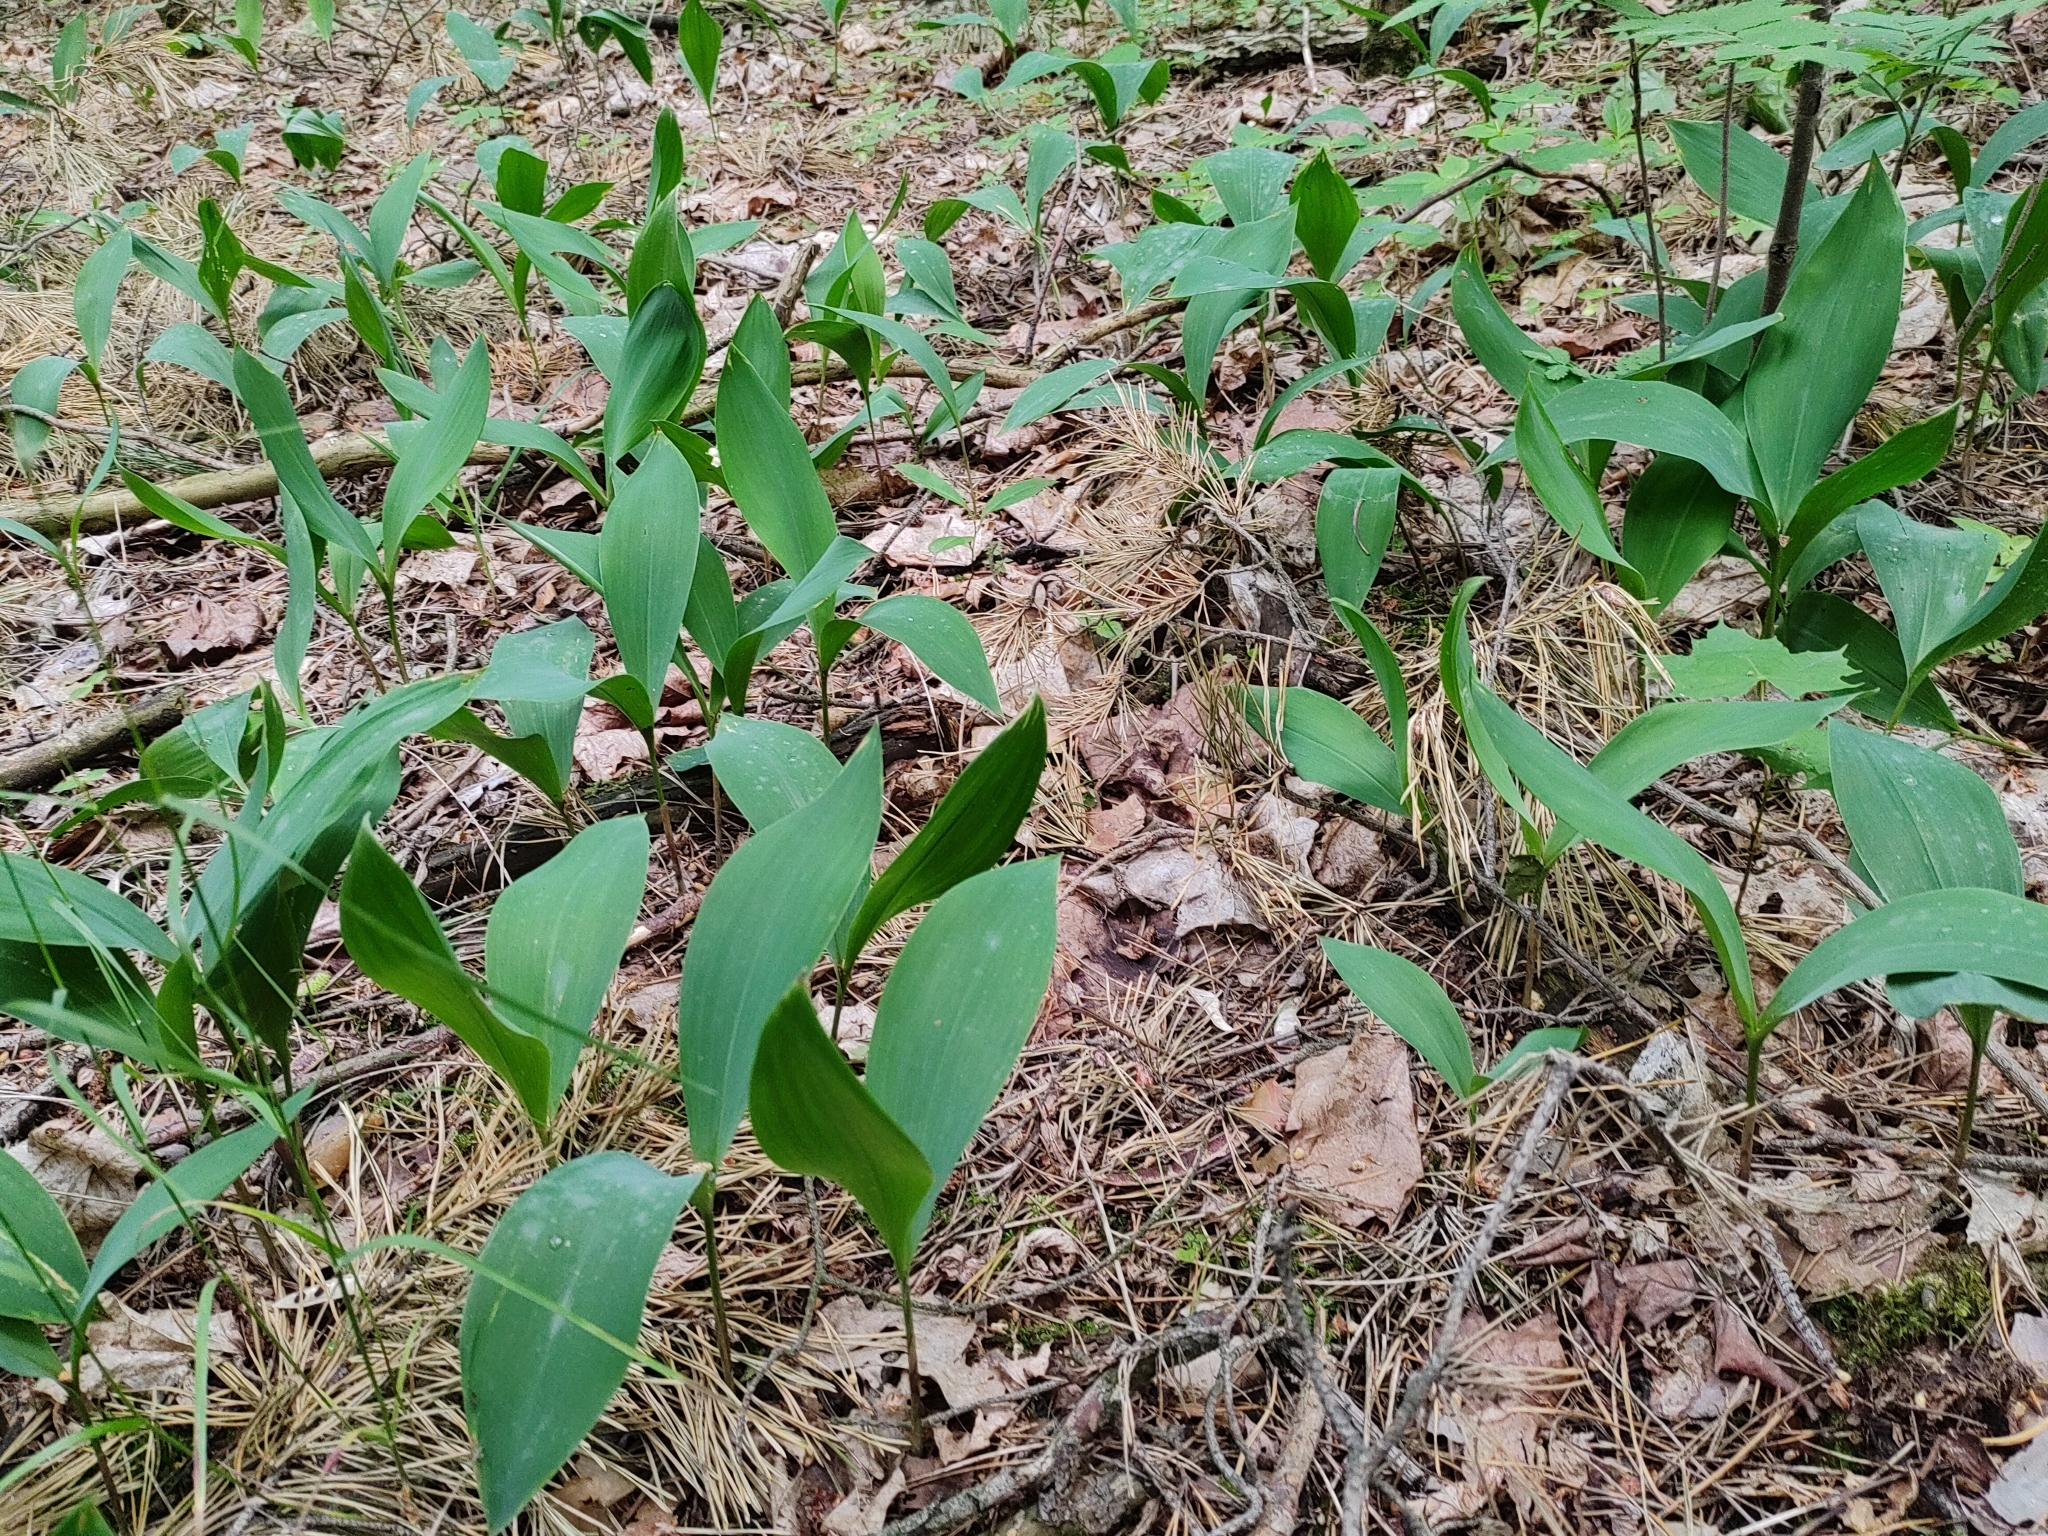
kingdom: Plantae
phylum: Tracheophyta
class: Liliopsida
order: Asparagales
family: Asparagaceae
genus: Convallaria
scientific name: Convallaria majalis
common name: Lily-of-the-valley
